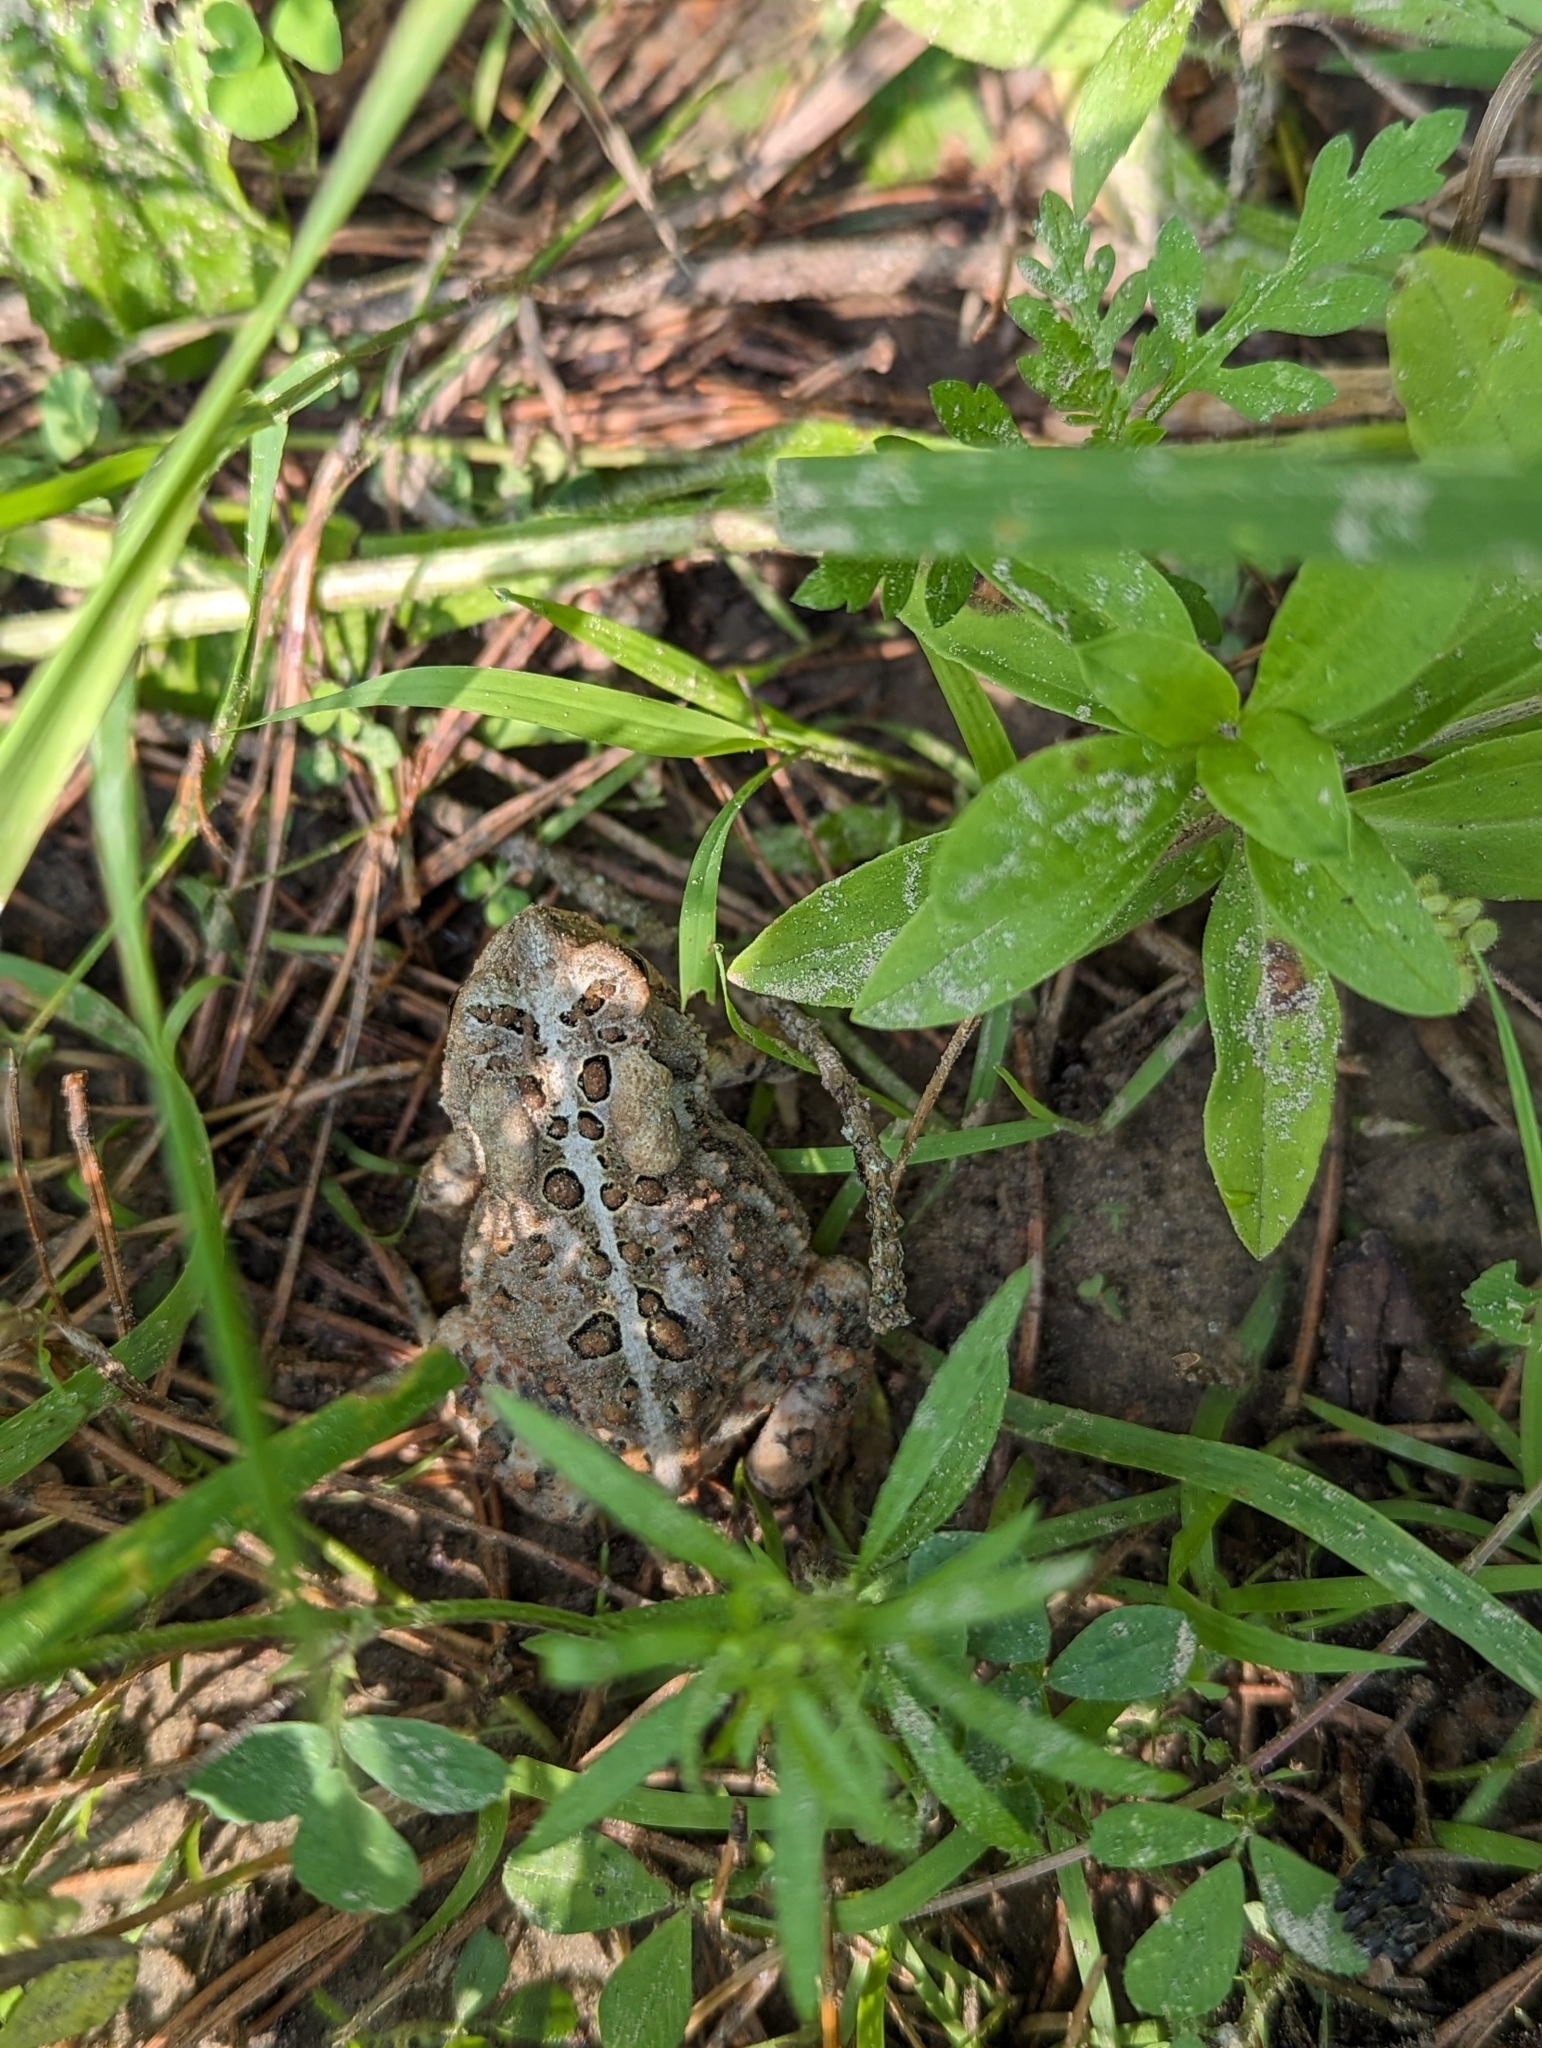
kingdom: Animalia
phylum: Chordata
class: Amphibia
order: Anura
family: Bufonidae
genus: Anaxyrus
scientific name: Anaxyrus americanus
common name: American toad
